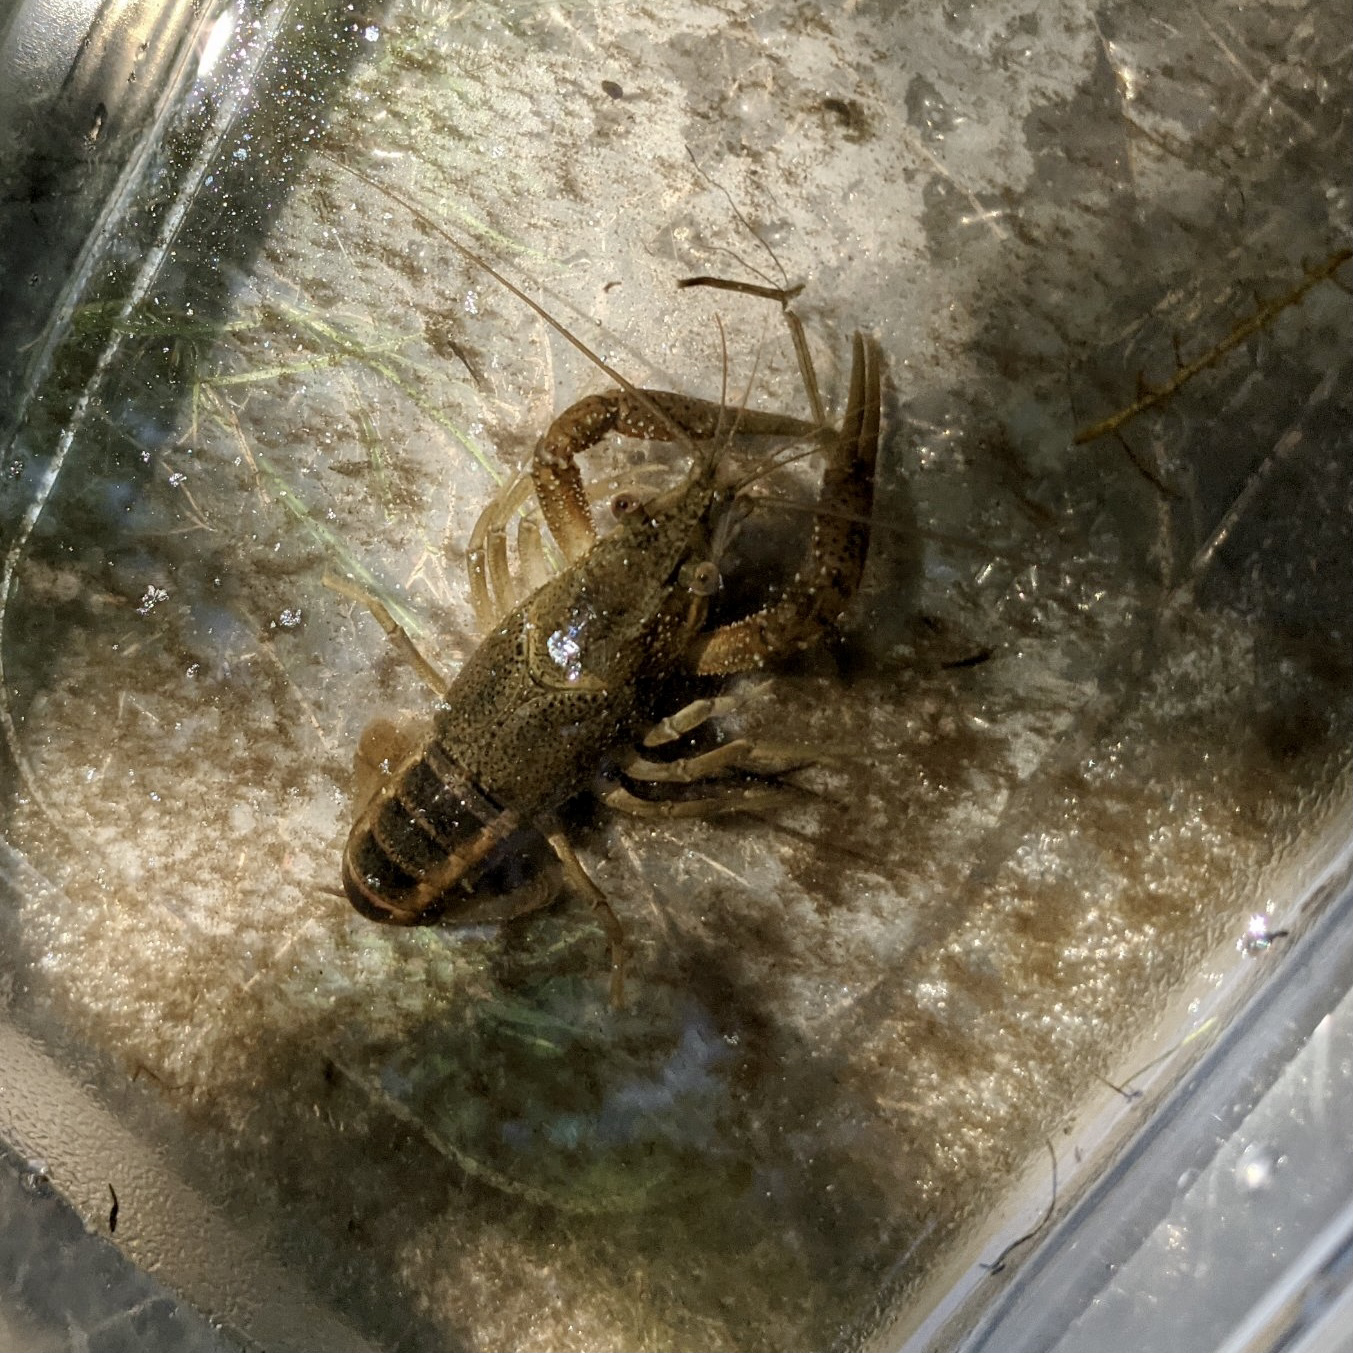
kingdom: Animalia
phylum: Arthropoda
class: Malacostraca
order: Decapoda
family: Cambaridae
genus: Procambarus
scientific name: Procambarus acutus
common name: White river crayfish
